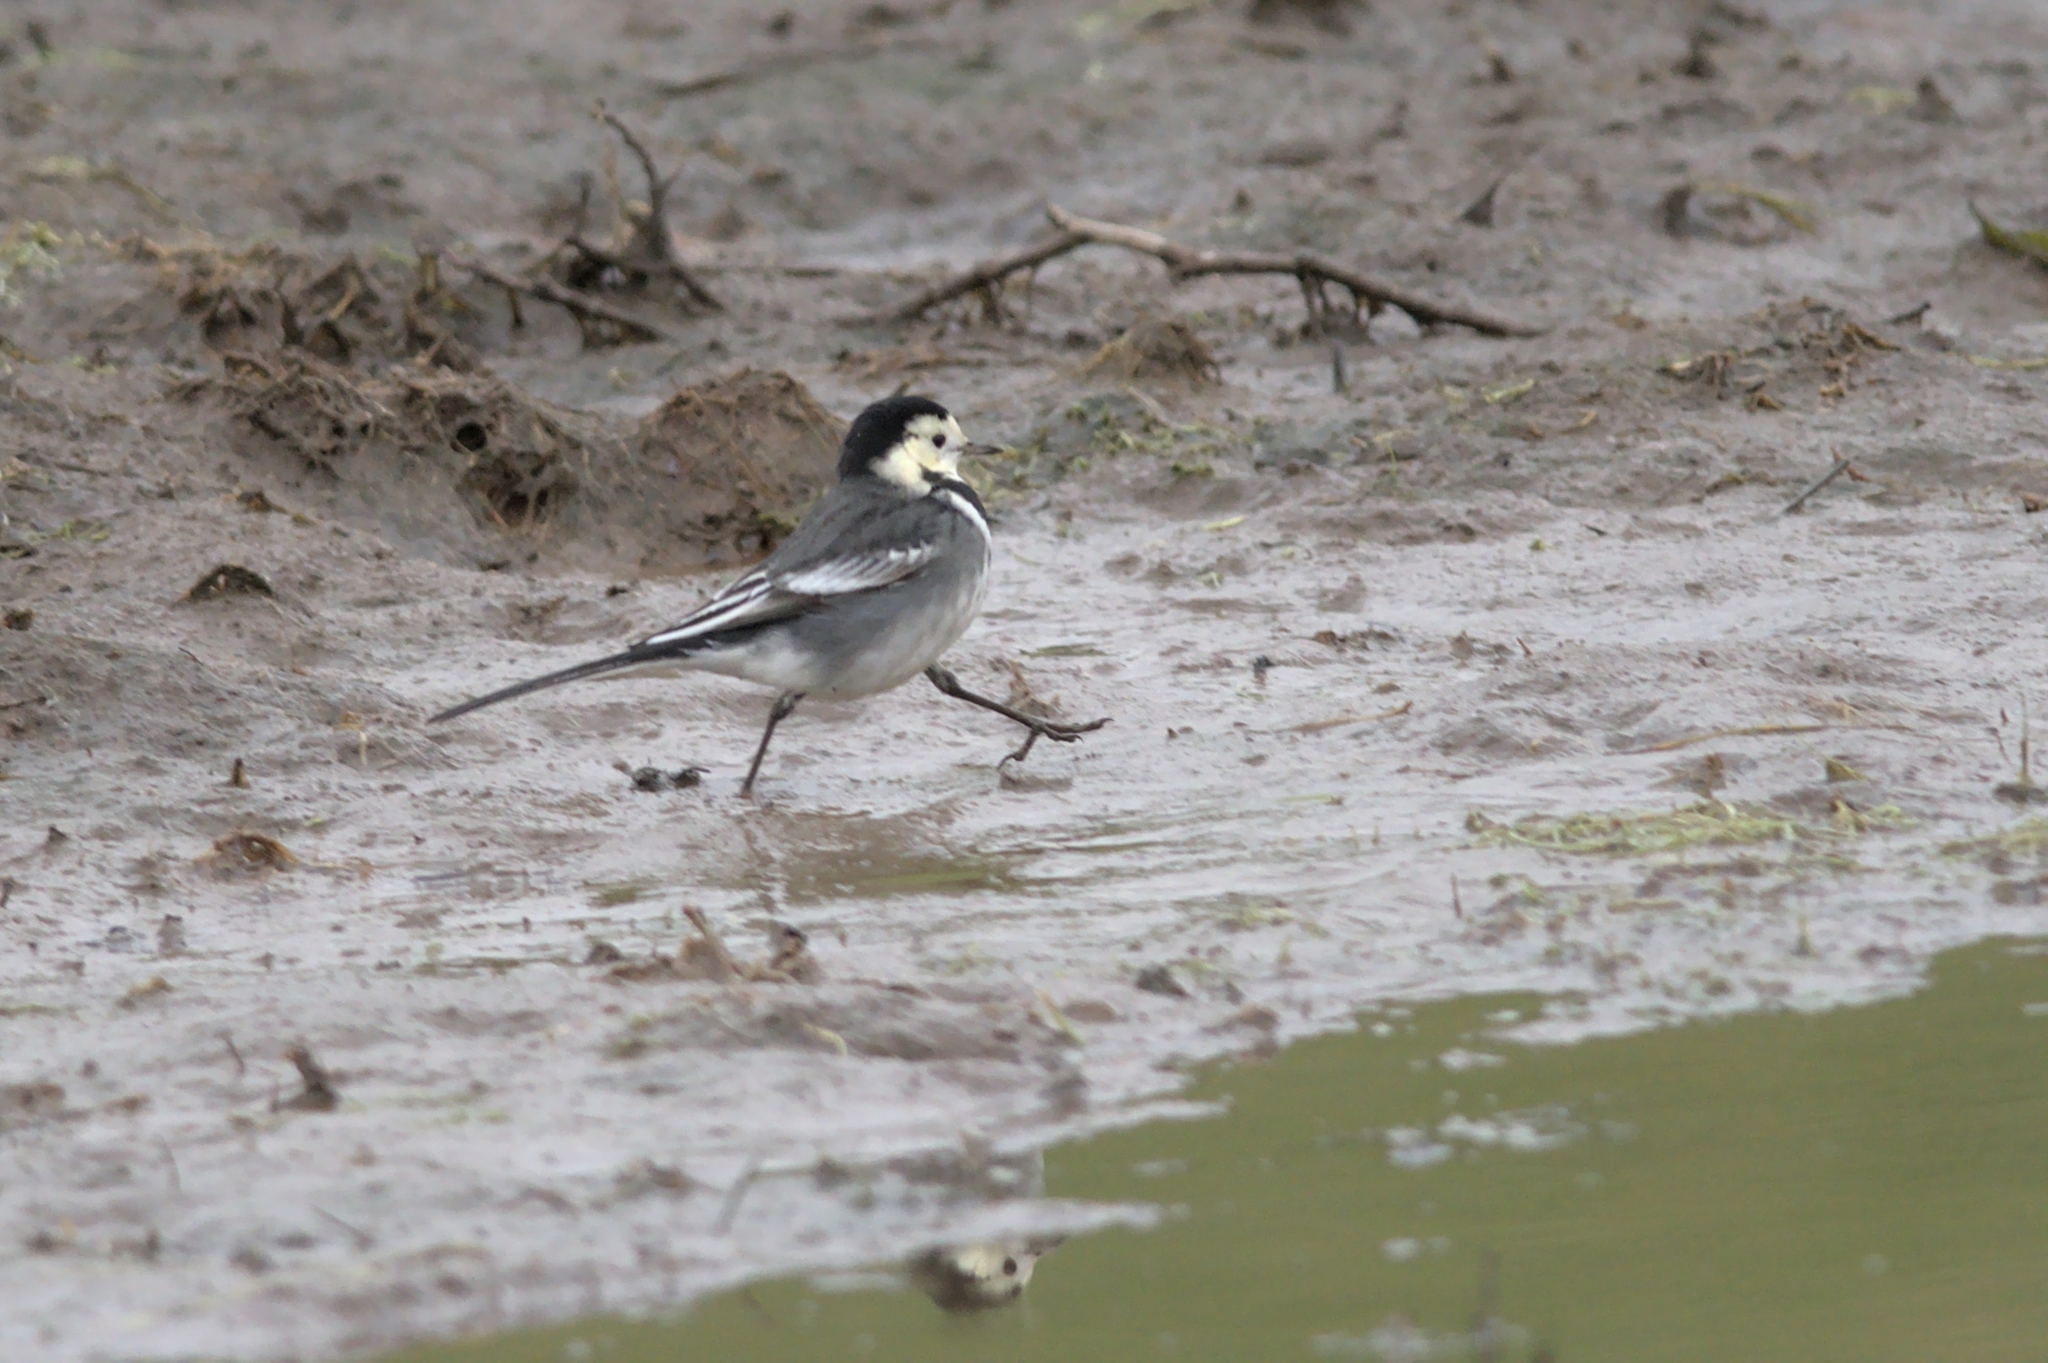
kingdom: Animalia
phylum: Chordata
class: Aves
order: Passeriformes
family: Motacillidae
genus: Motacilla
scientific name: Motacilla alba
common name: White wagtail
